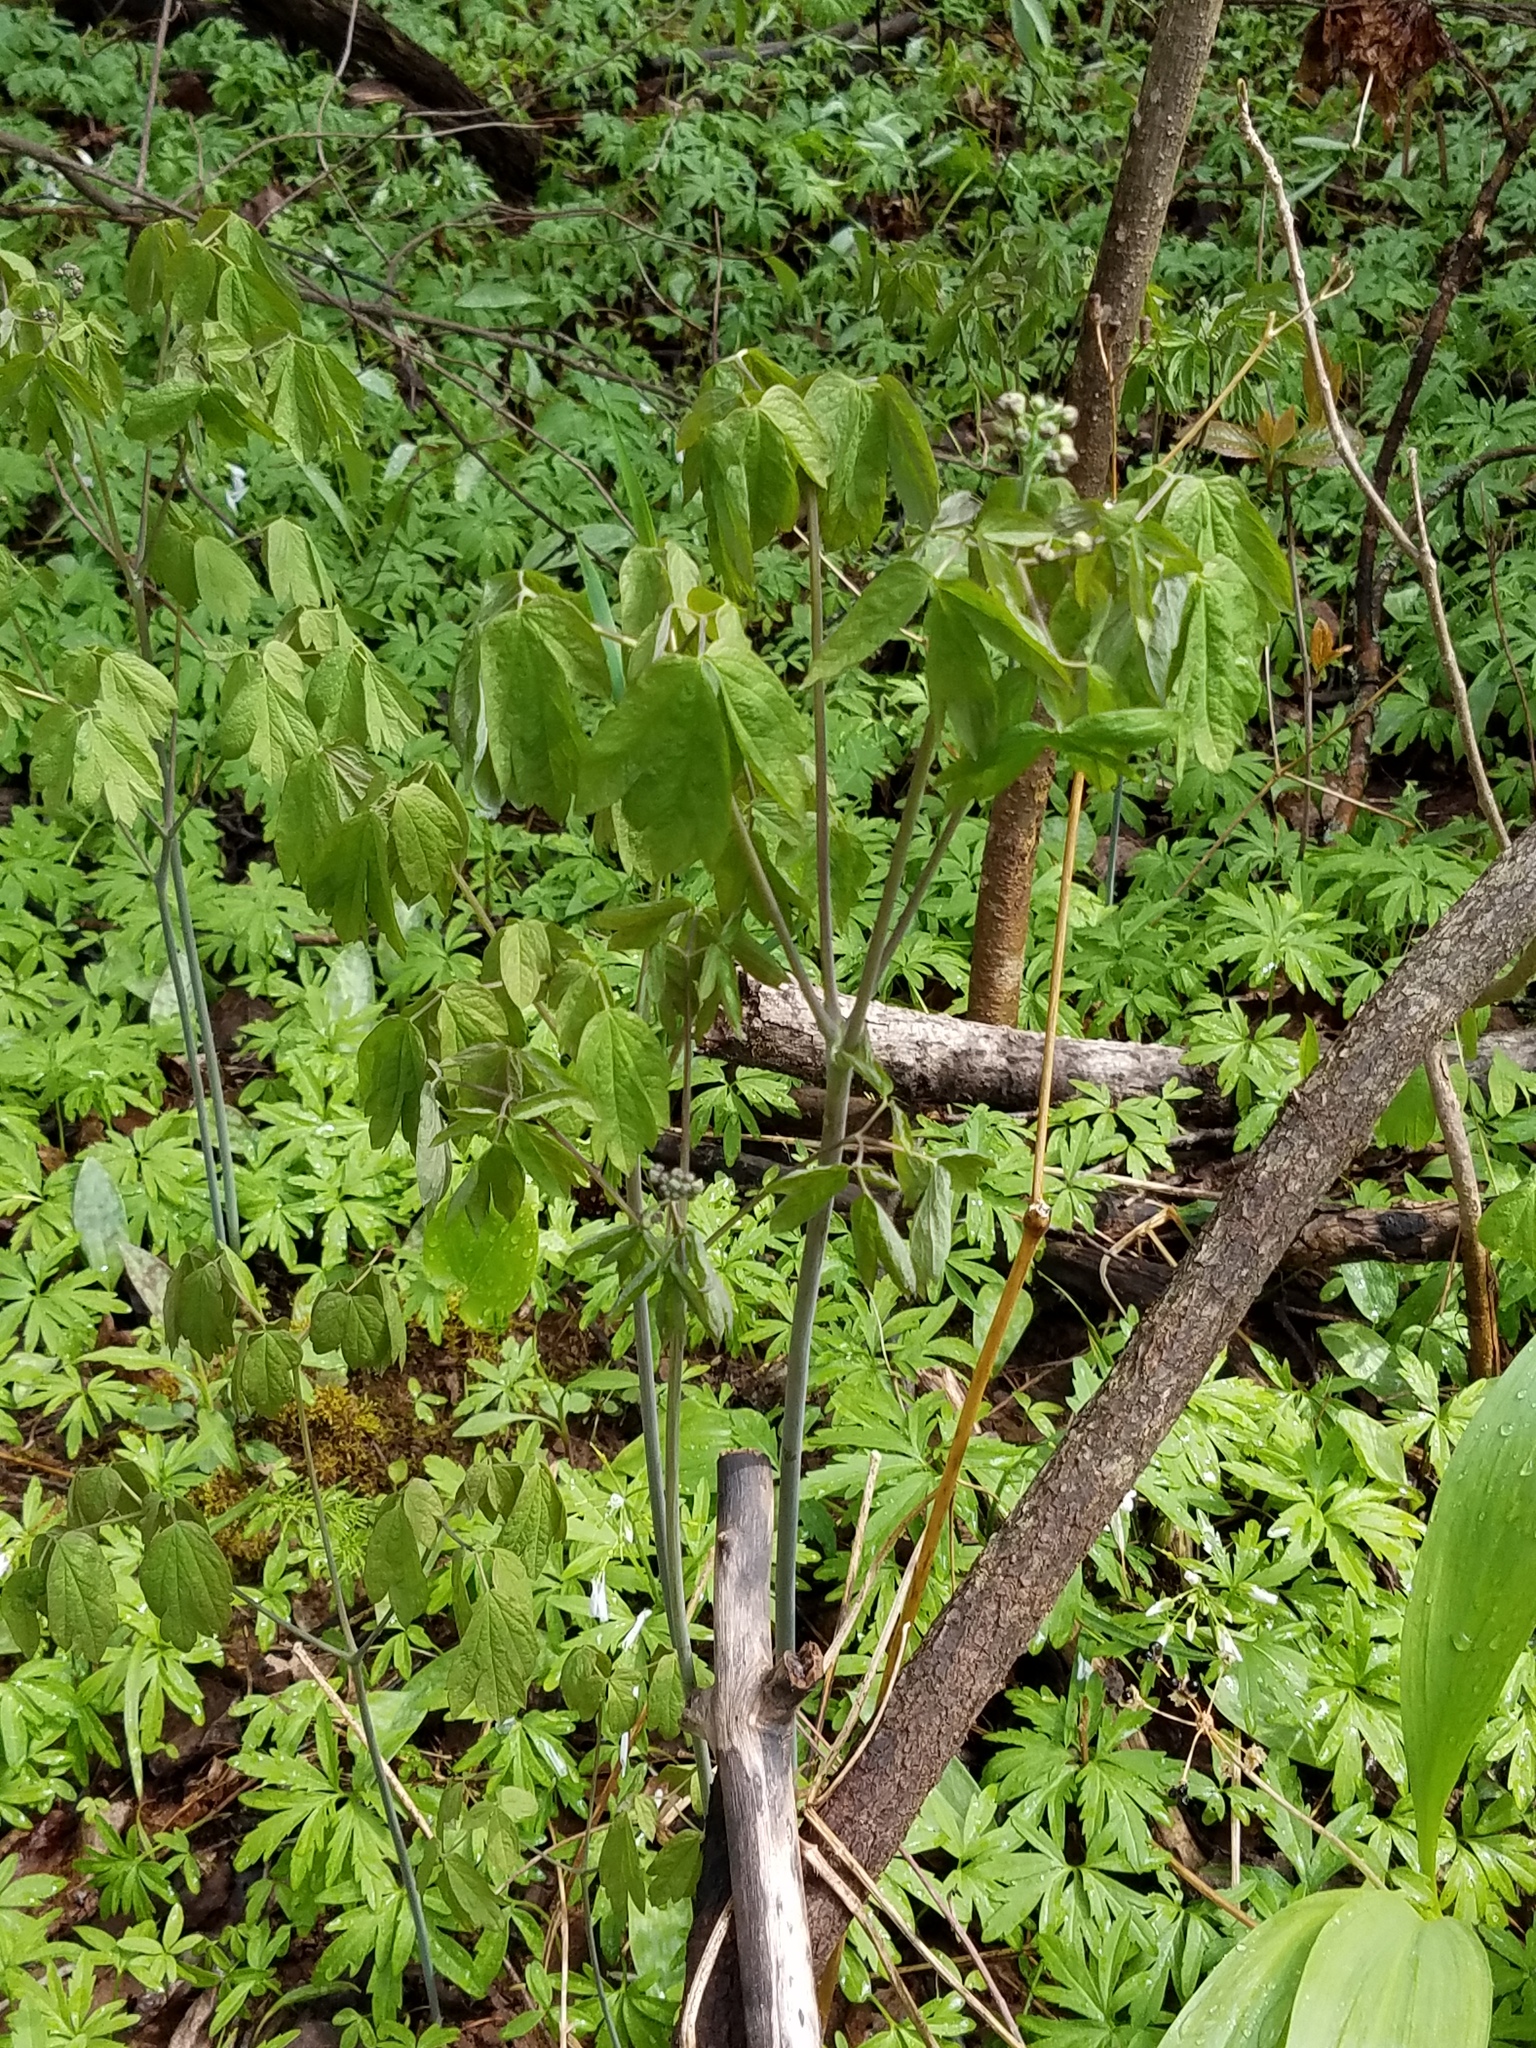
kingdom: Plantae
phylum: Tracheophyta
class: Magnoliopsida
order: Ranunculales
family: Berberidaceae
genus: Caulophyllum
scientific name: Caulophyllum thalictroides
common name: Blue cohosh
